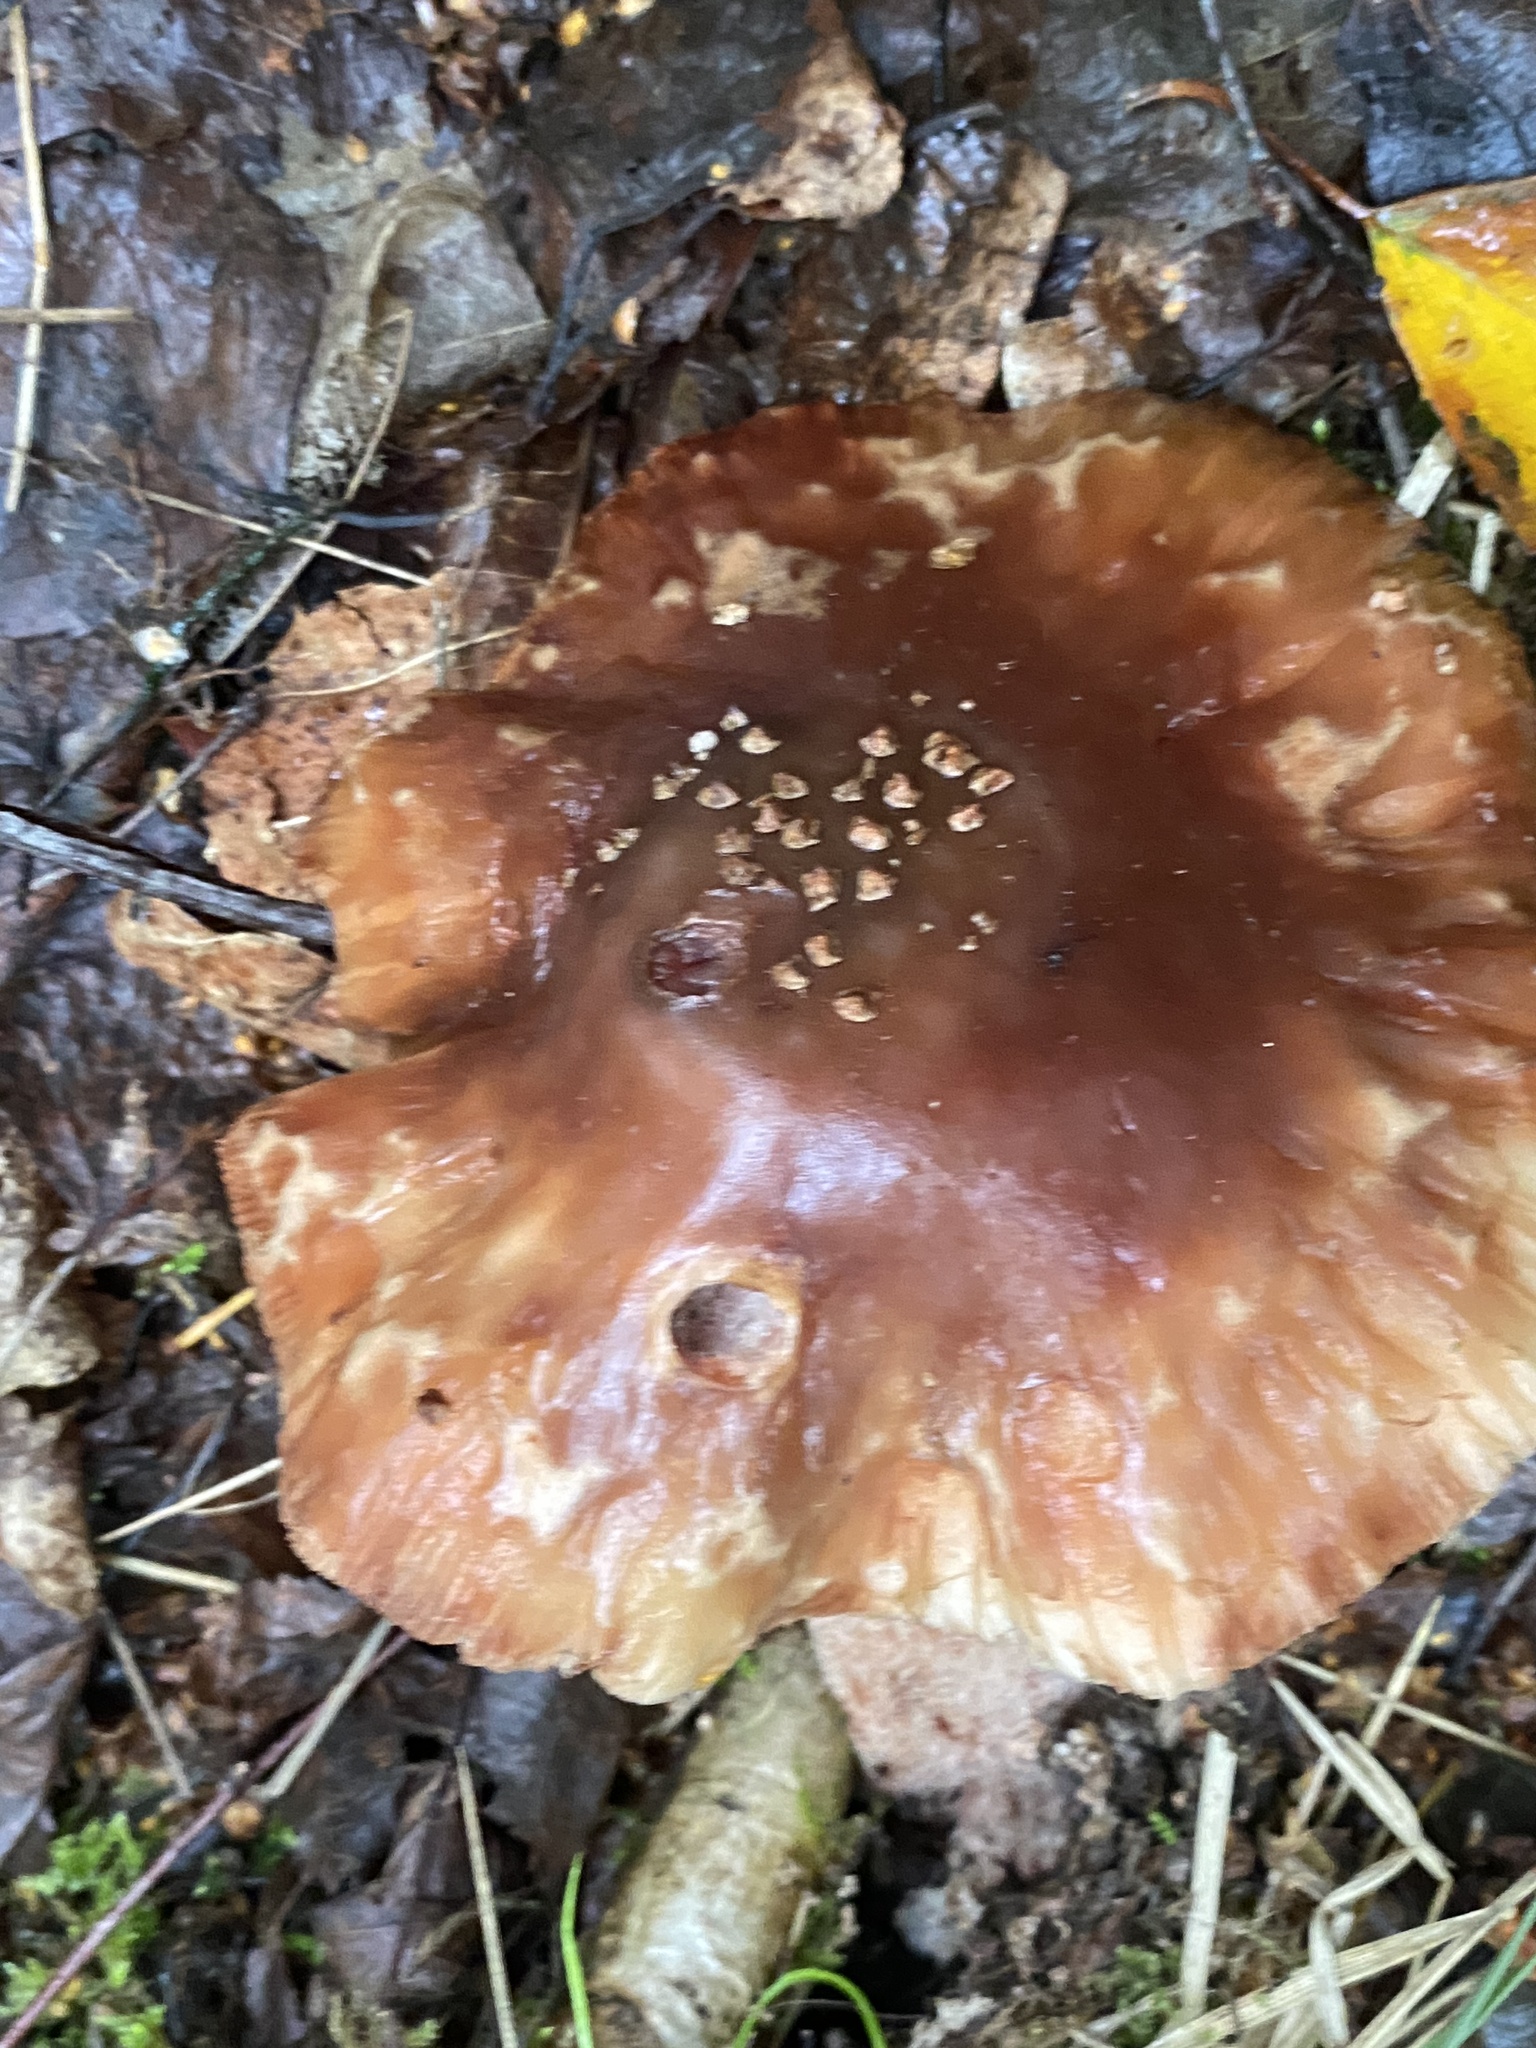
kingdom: Fungi
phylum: Basidiomycota
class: Agaricomycetes
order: Agaricales
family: Amanitaceae
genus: Amanita
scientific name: Amanita rubescens
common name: Blusher
